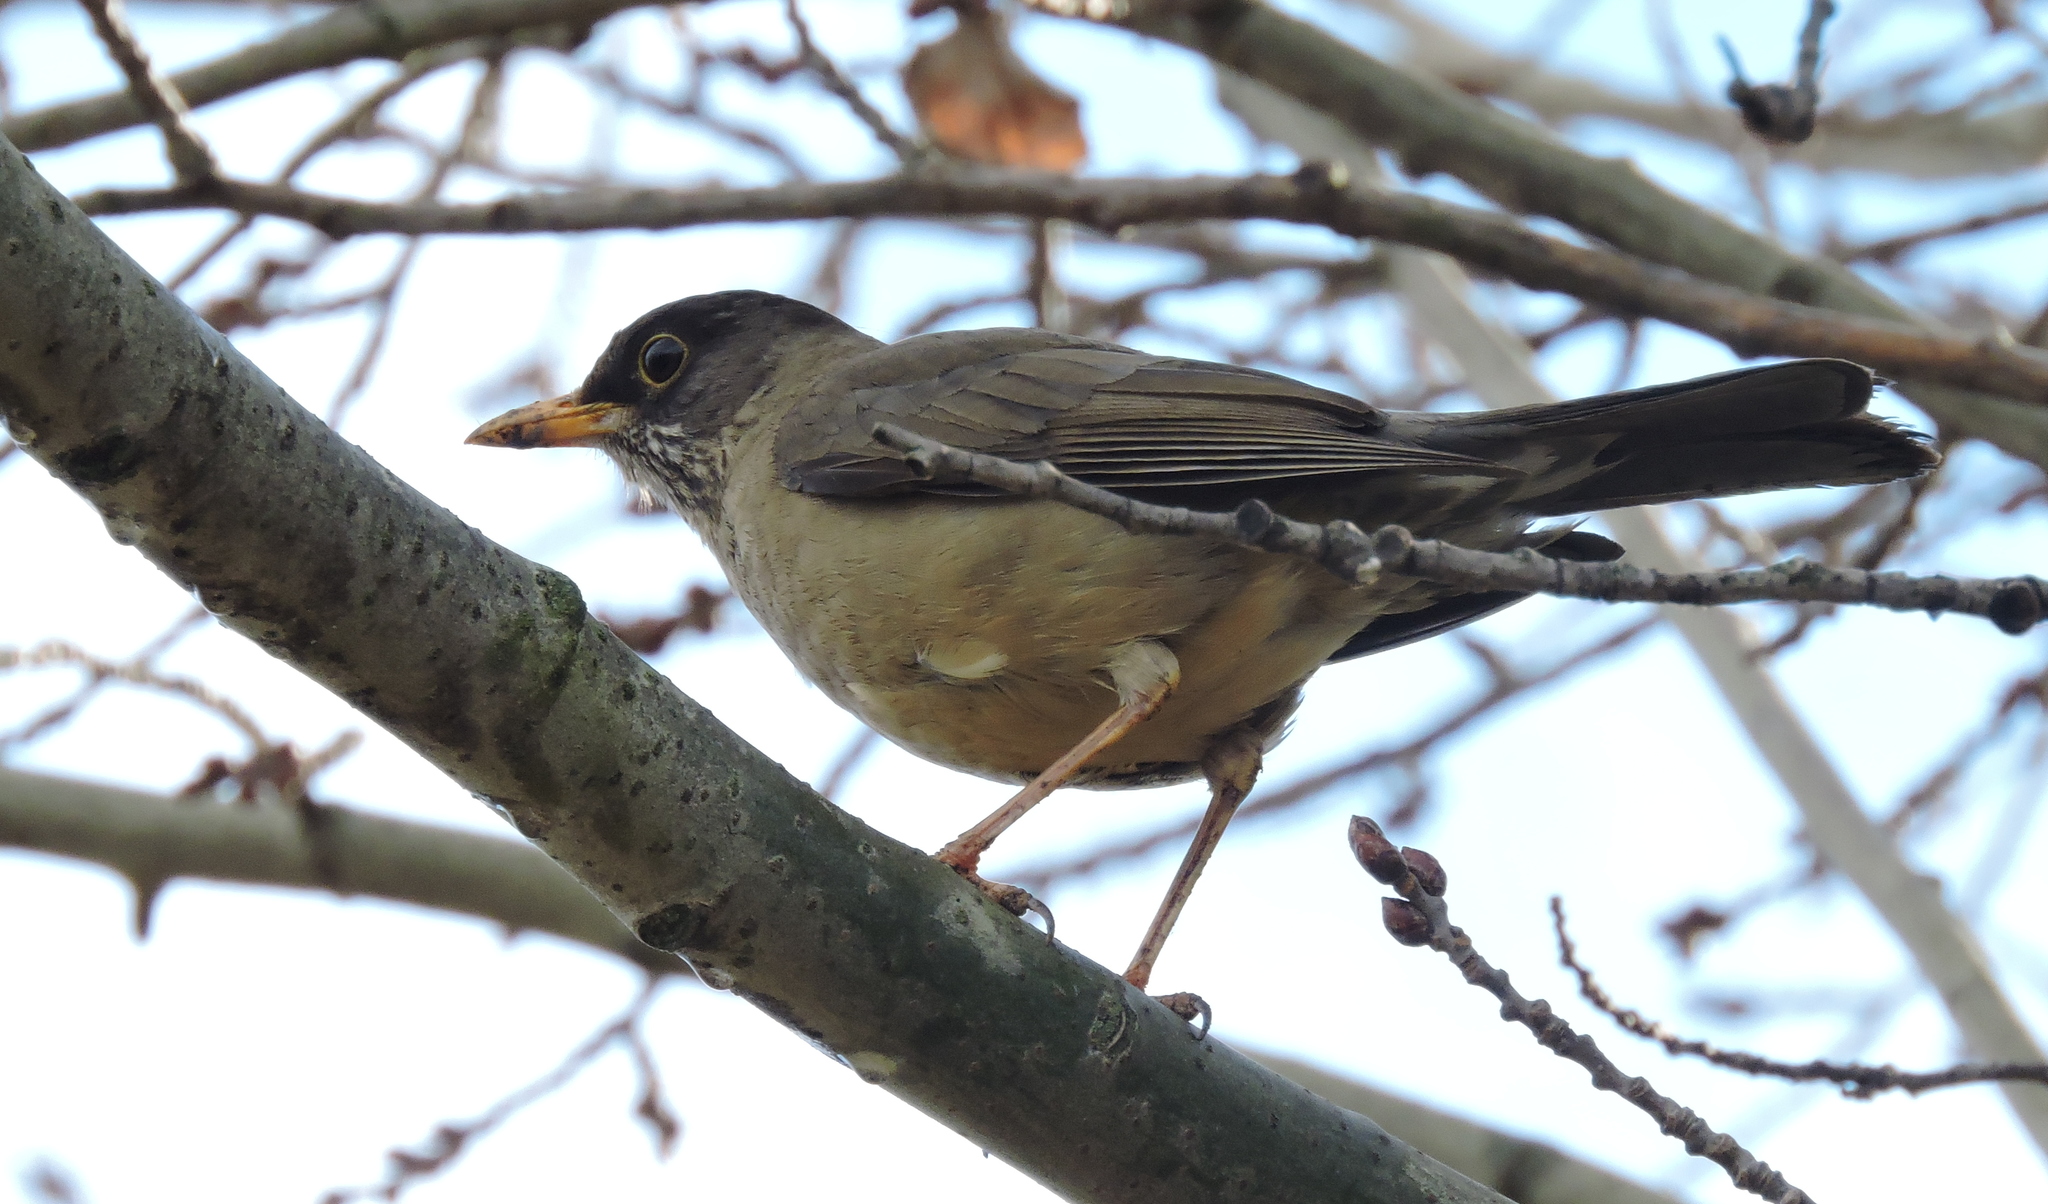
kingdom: Animalia
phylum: Chordata
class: Aves
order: Passeriformes
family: Turdidae
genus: Turdus
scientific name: Turdus falcklandii
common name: Austral thrush
